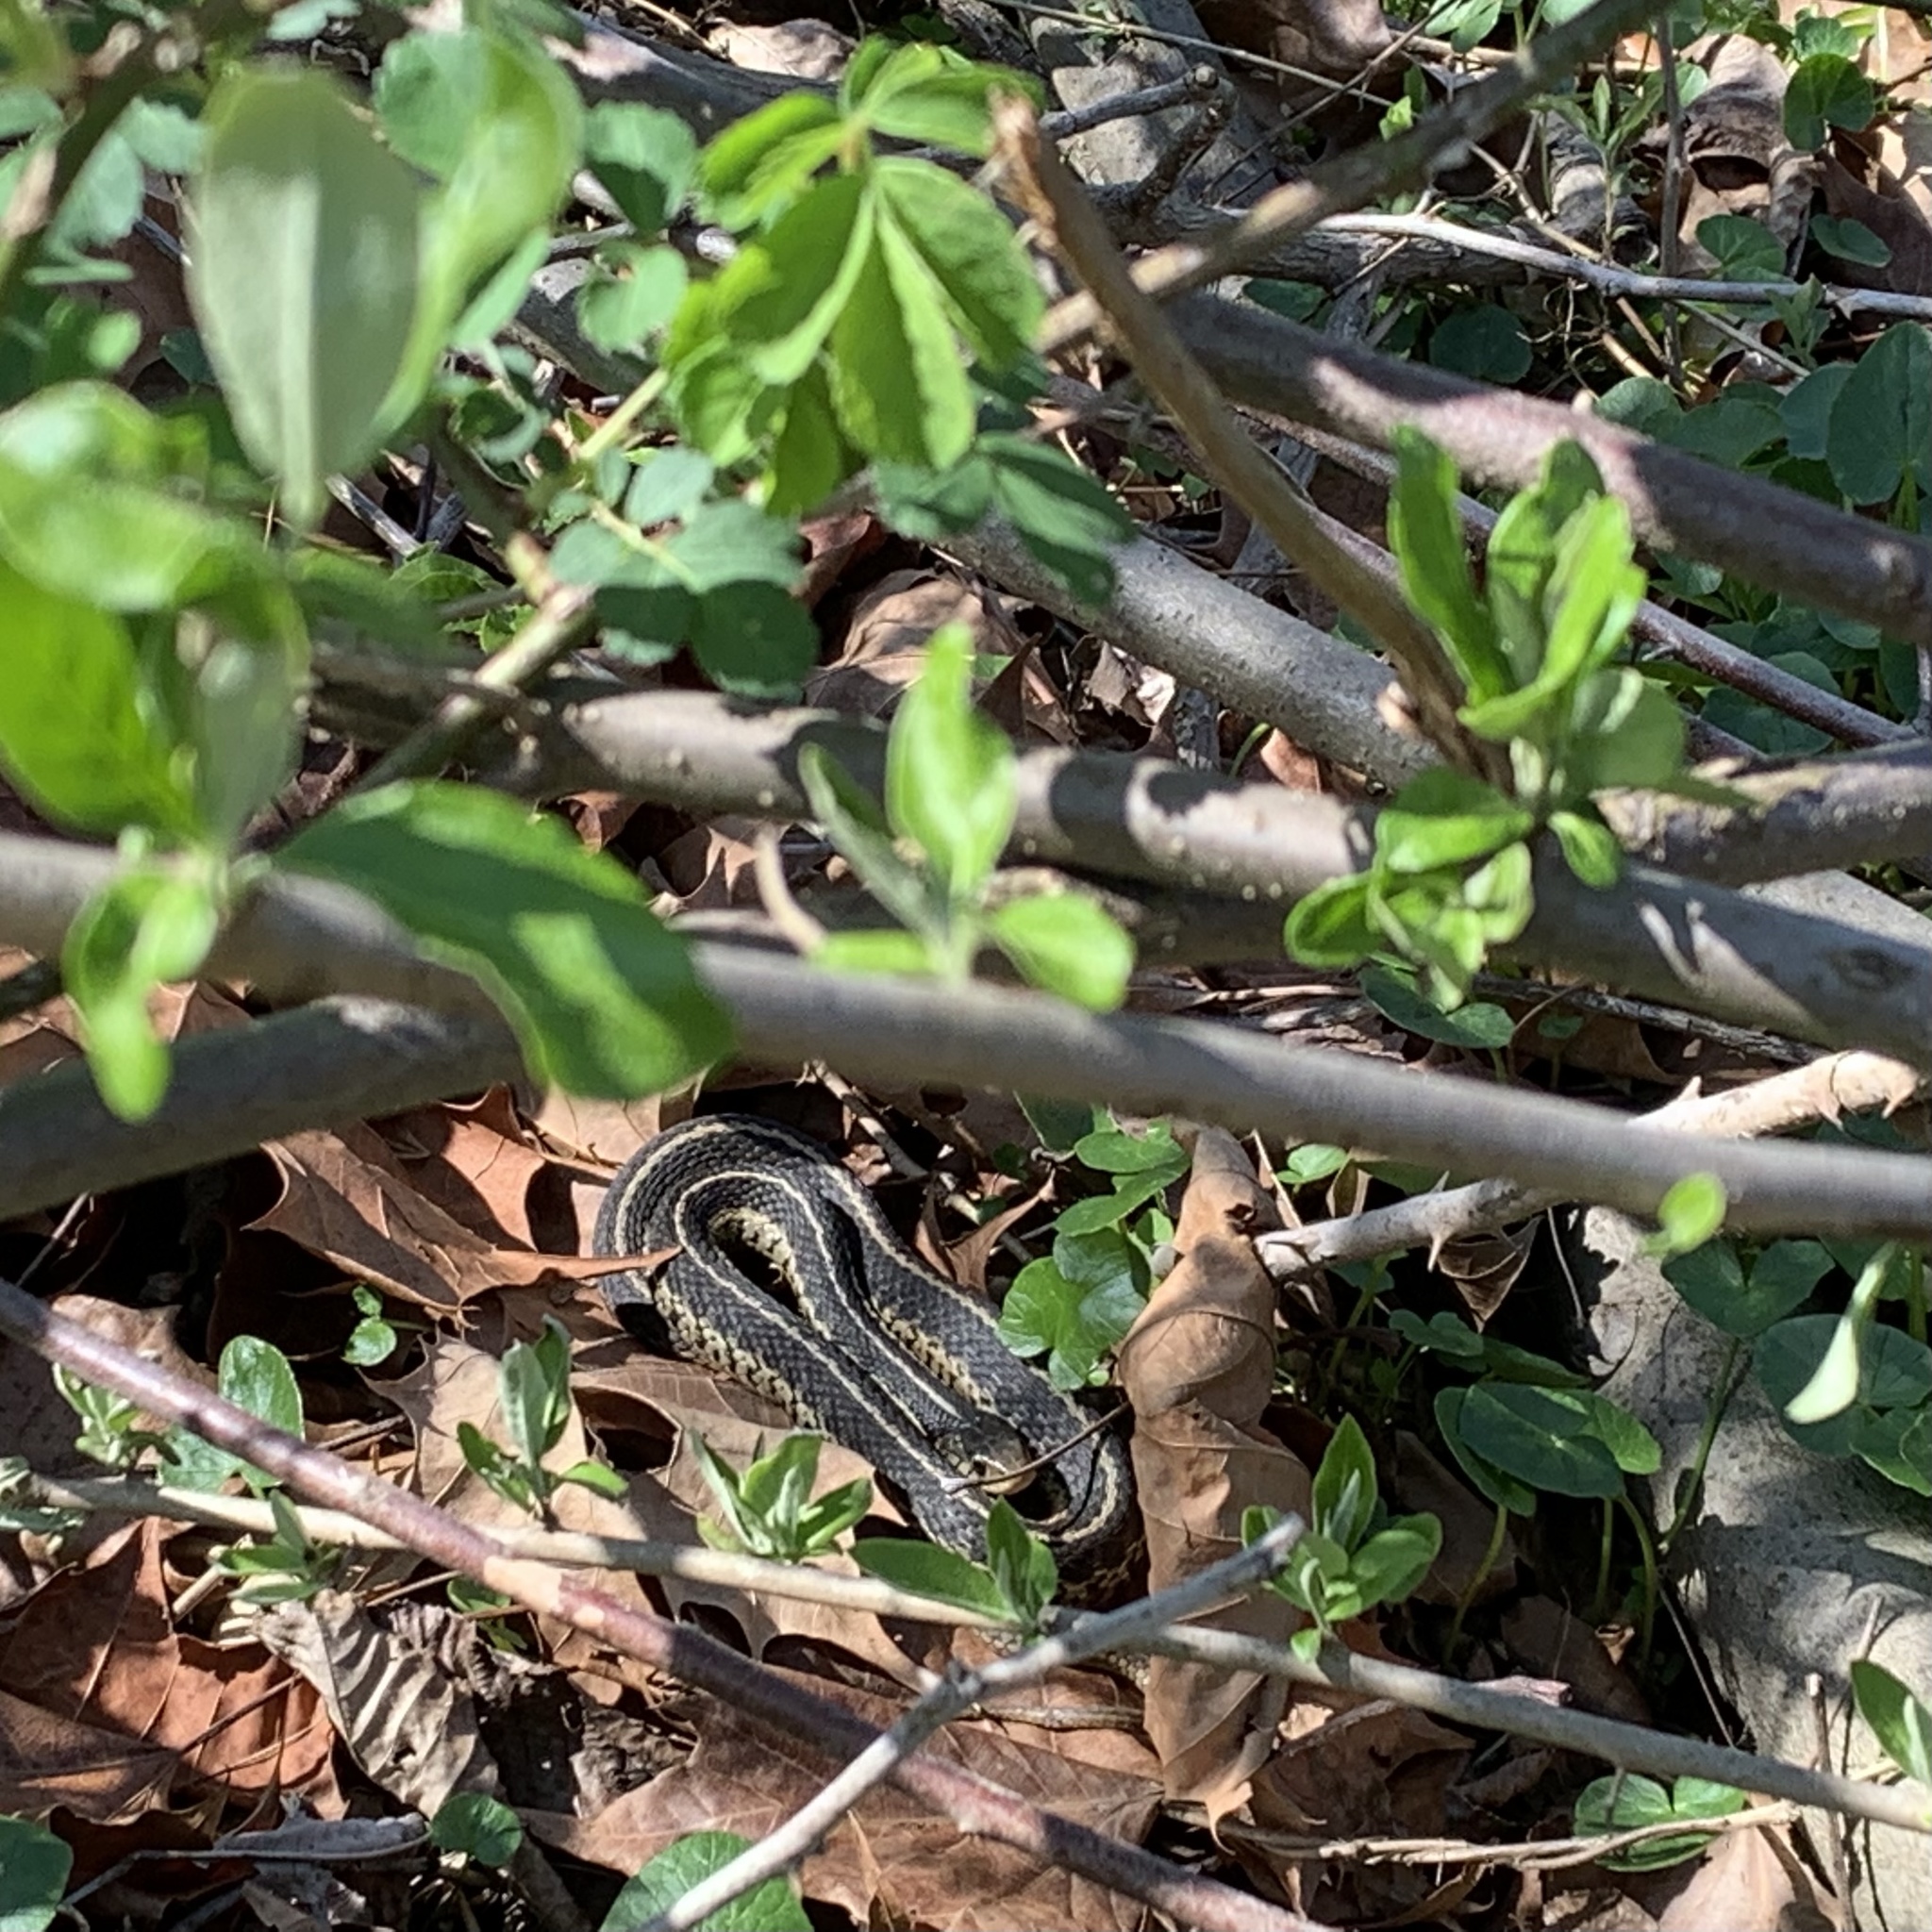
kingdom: Animalia
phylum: Chordata
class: Squamata
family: Colubridae
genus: Thamnophis
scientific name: Thamnophis sirtalis
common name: Common garter snake
